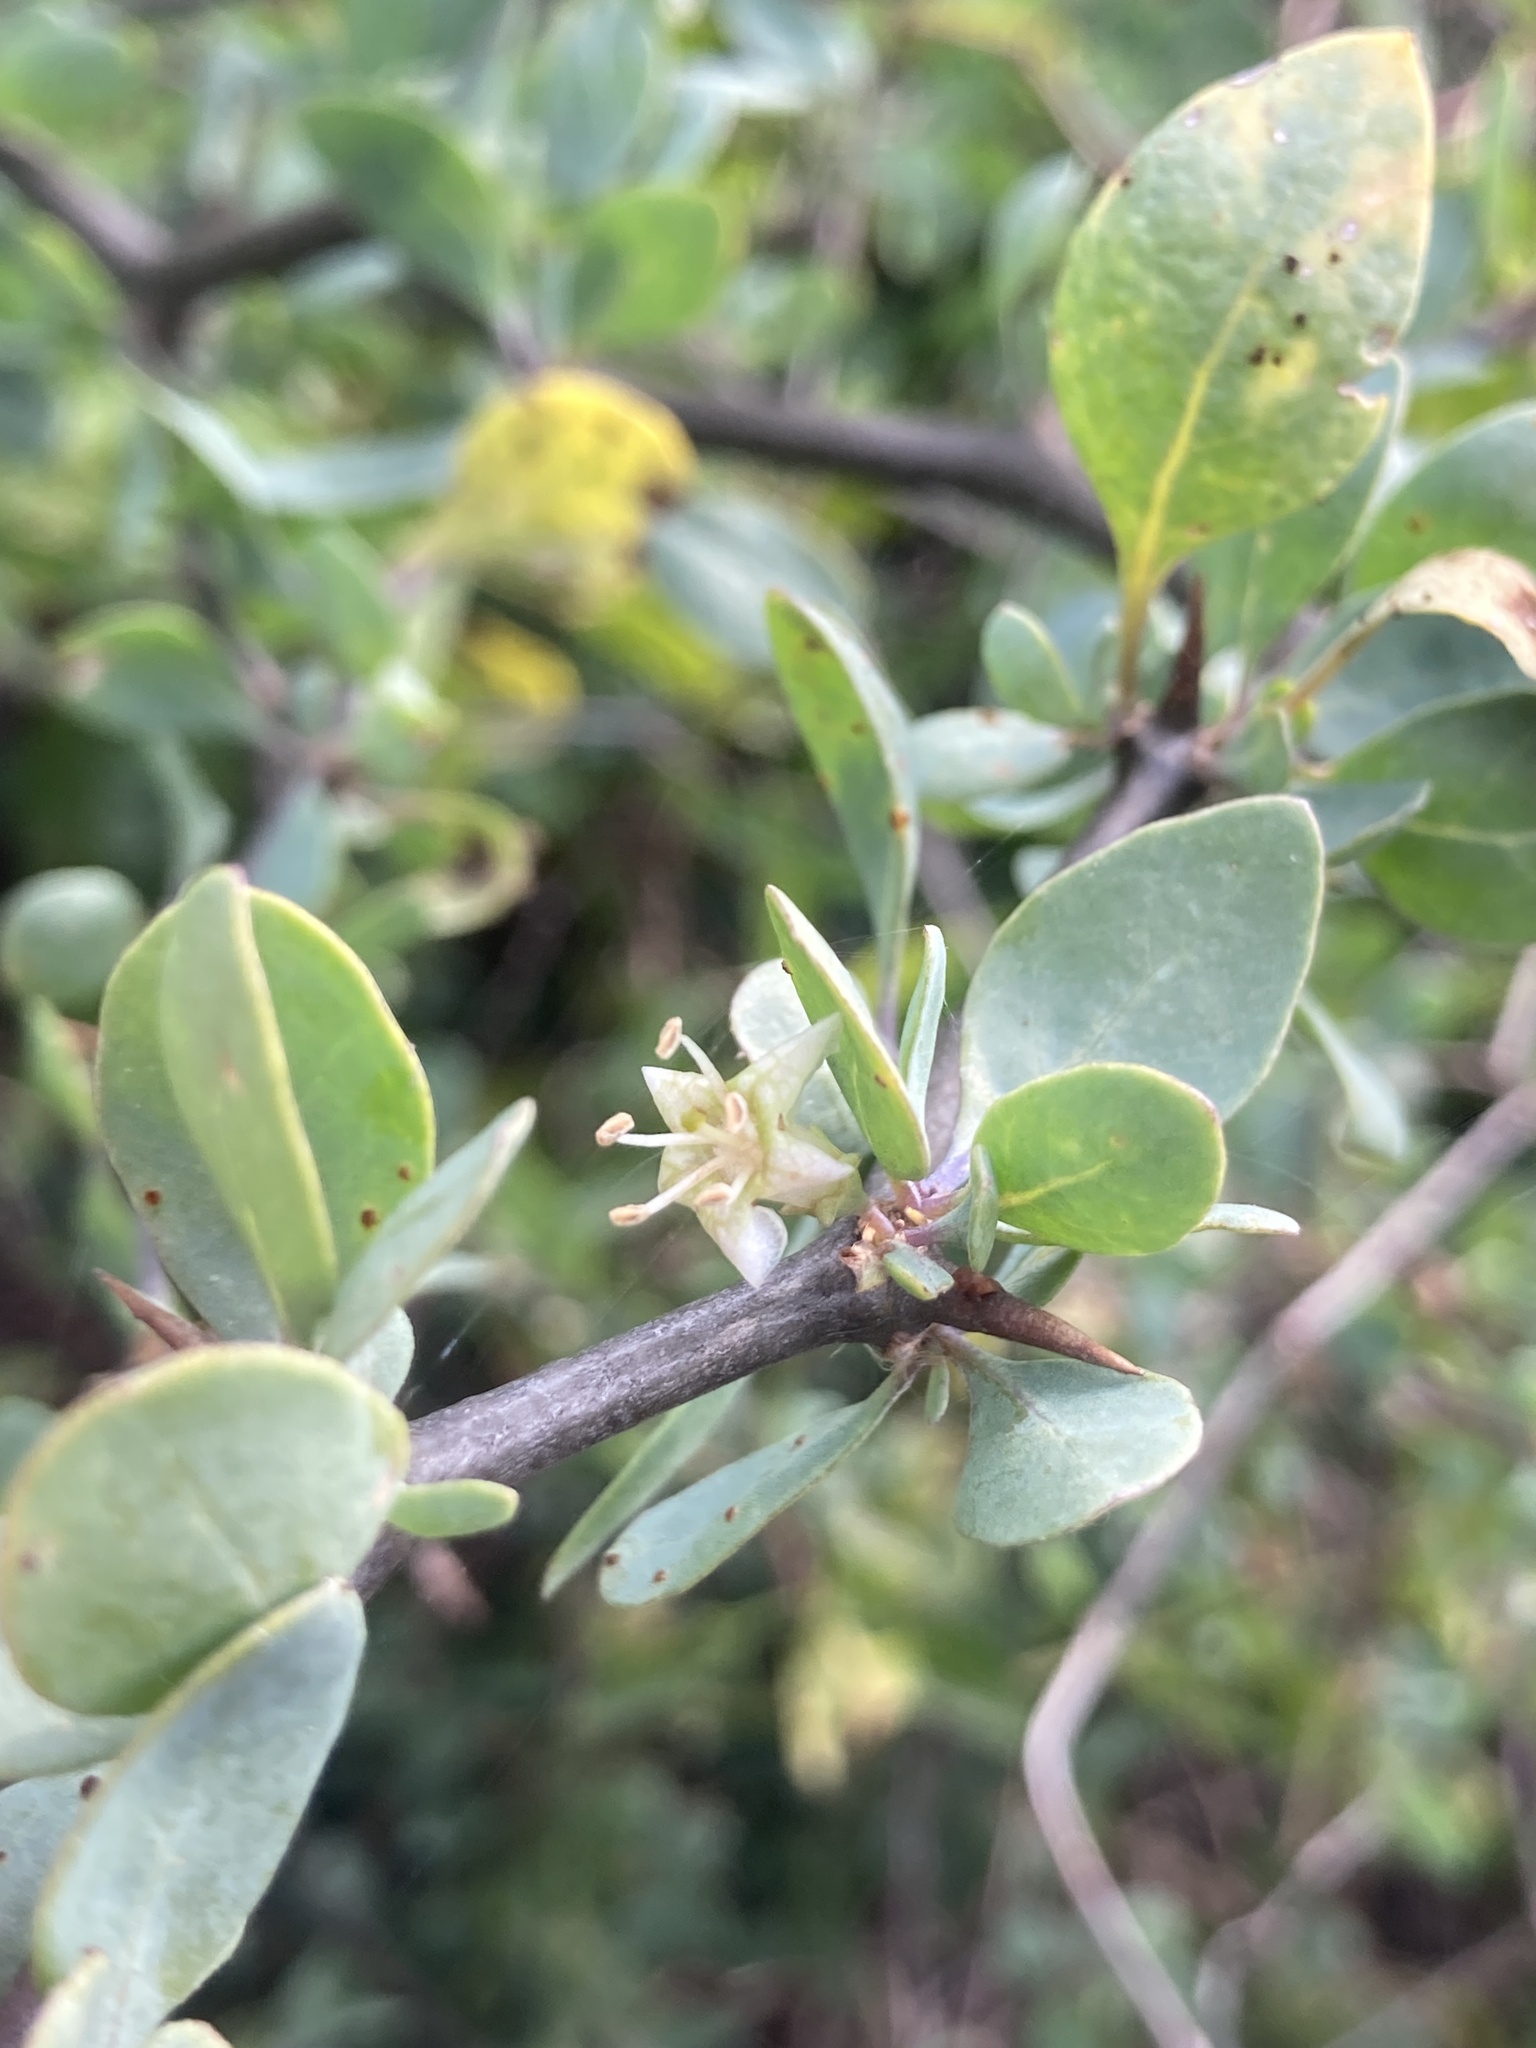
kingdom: Plantae
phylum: Tracheophyta
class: Magnoliopsida
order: Solanales
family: Solanaceae
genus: Lycium
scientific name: Lycium boerhaaviifolium
